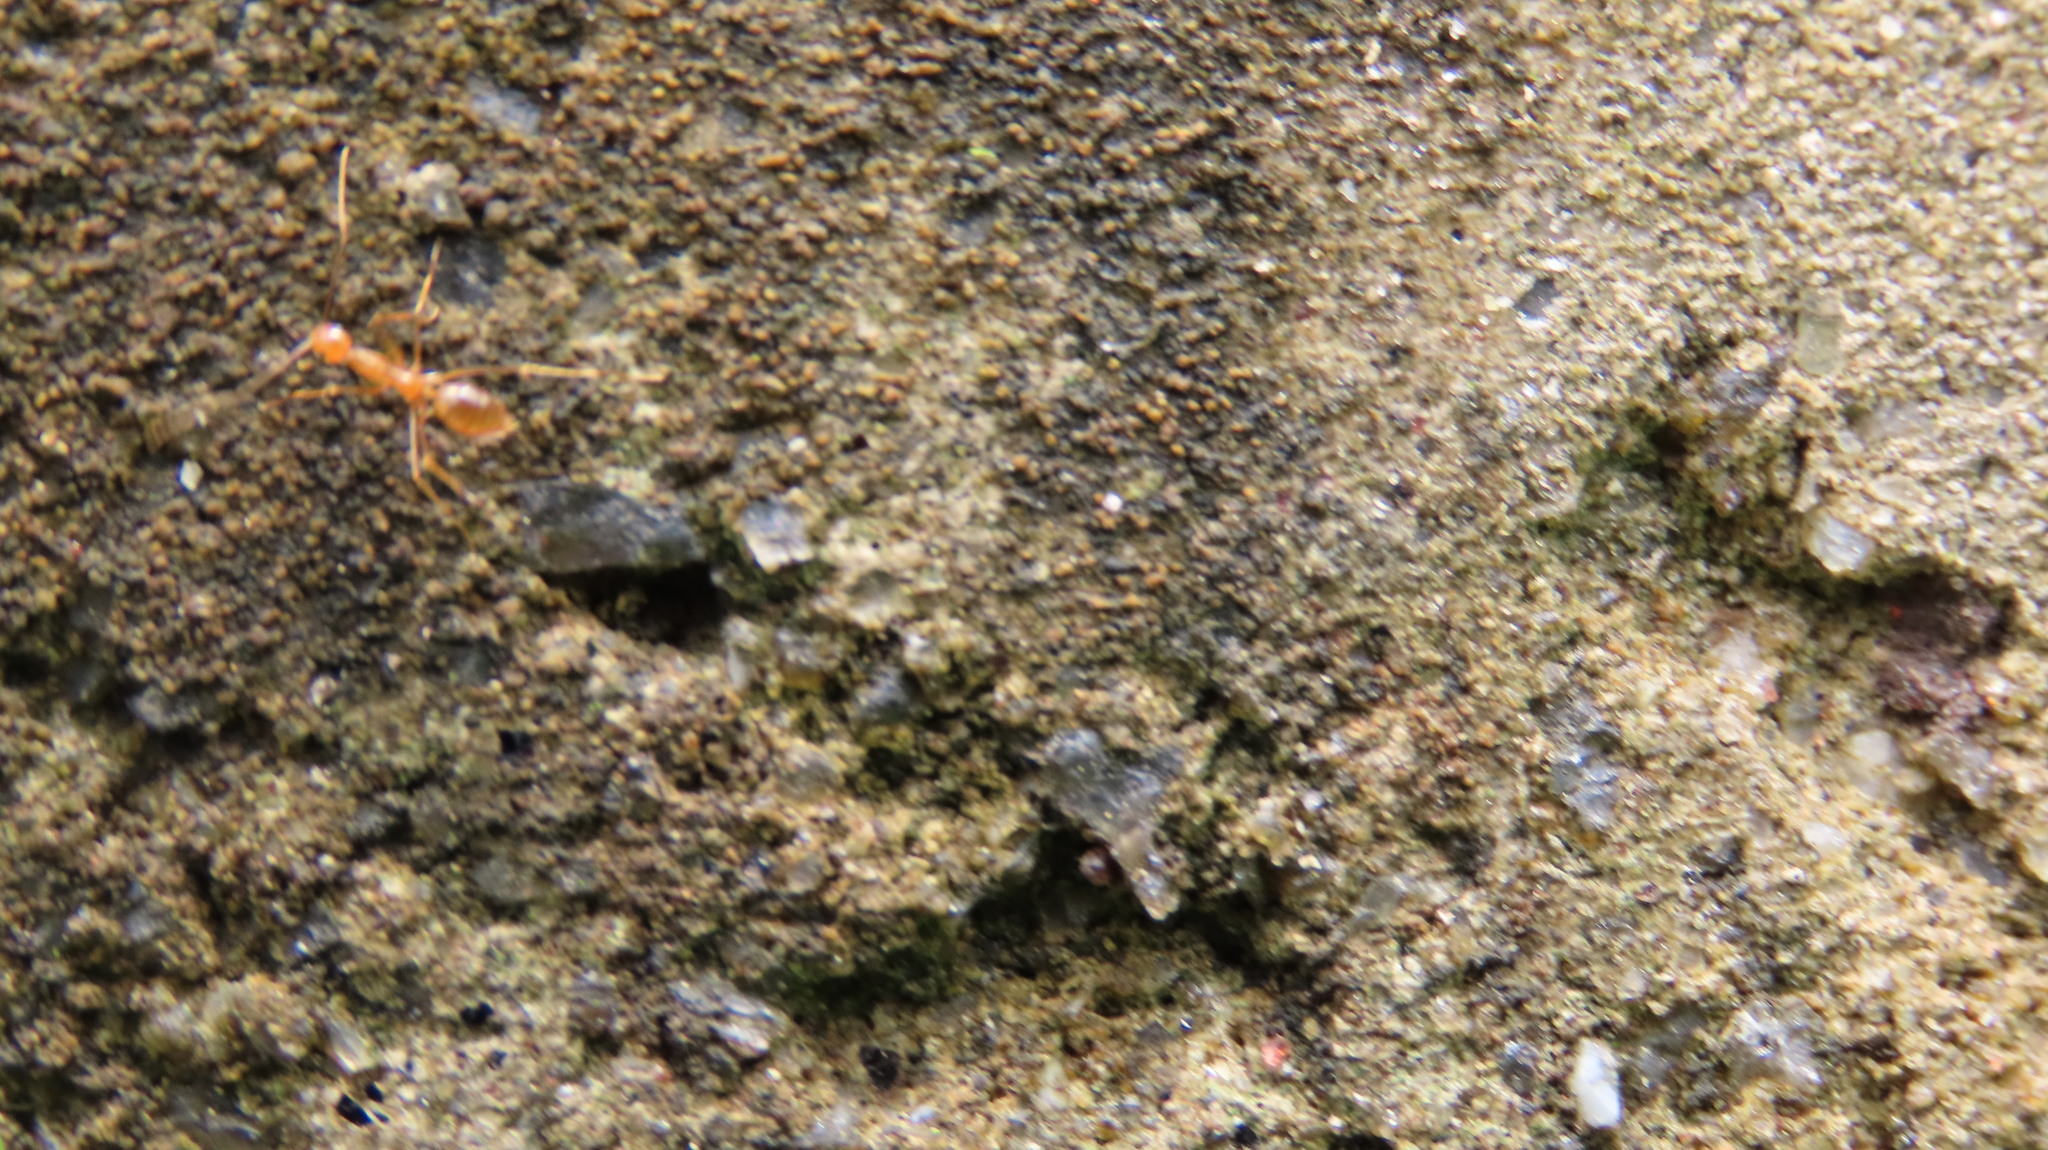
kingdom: Animalia
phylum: Arthropoda
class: Insecta
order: Hymenoptera
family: Formicidae
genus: Anoplolepis
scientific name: Anoplolepis gracilipes
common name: Ant
